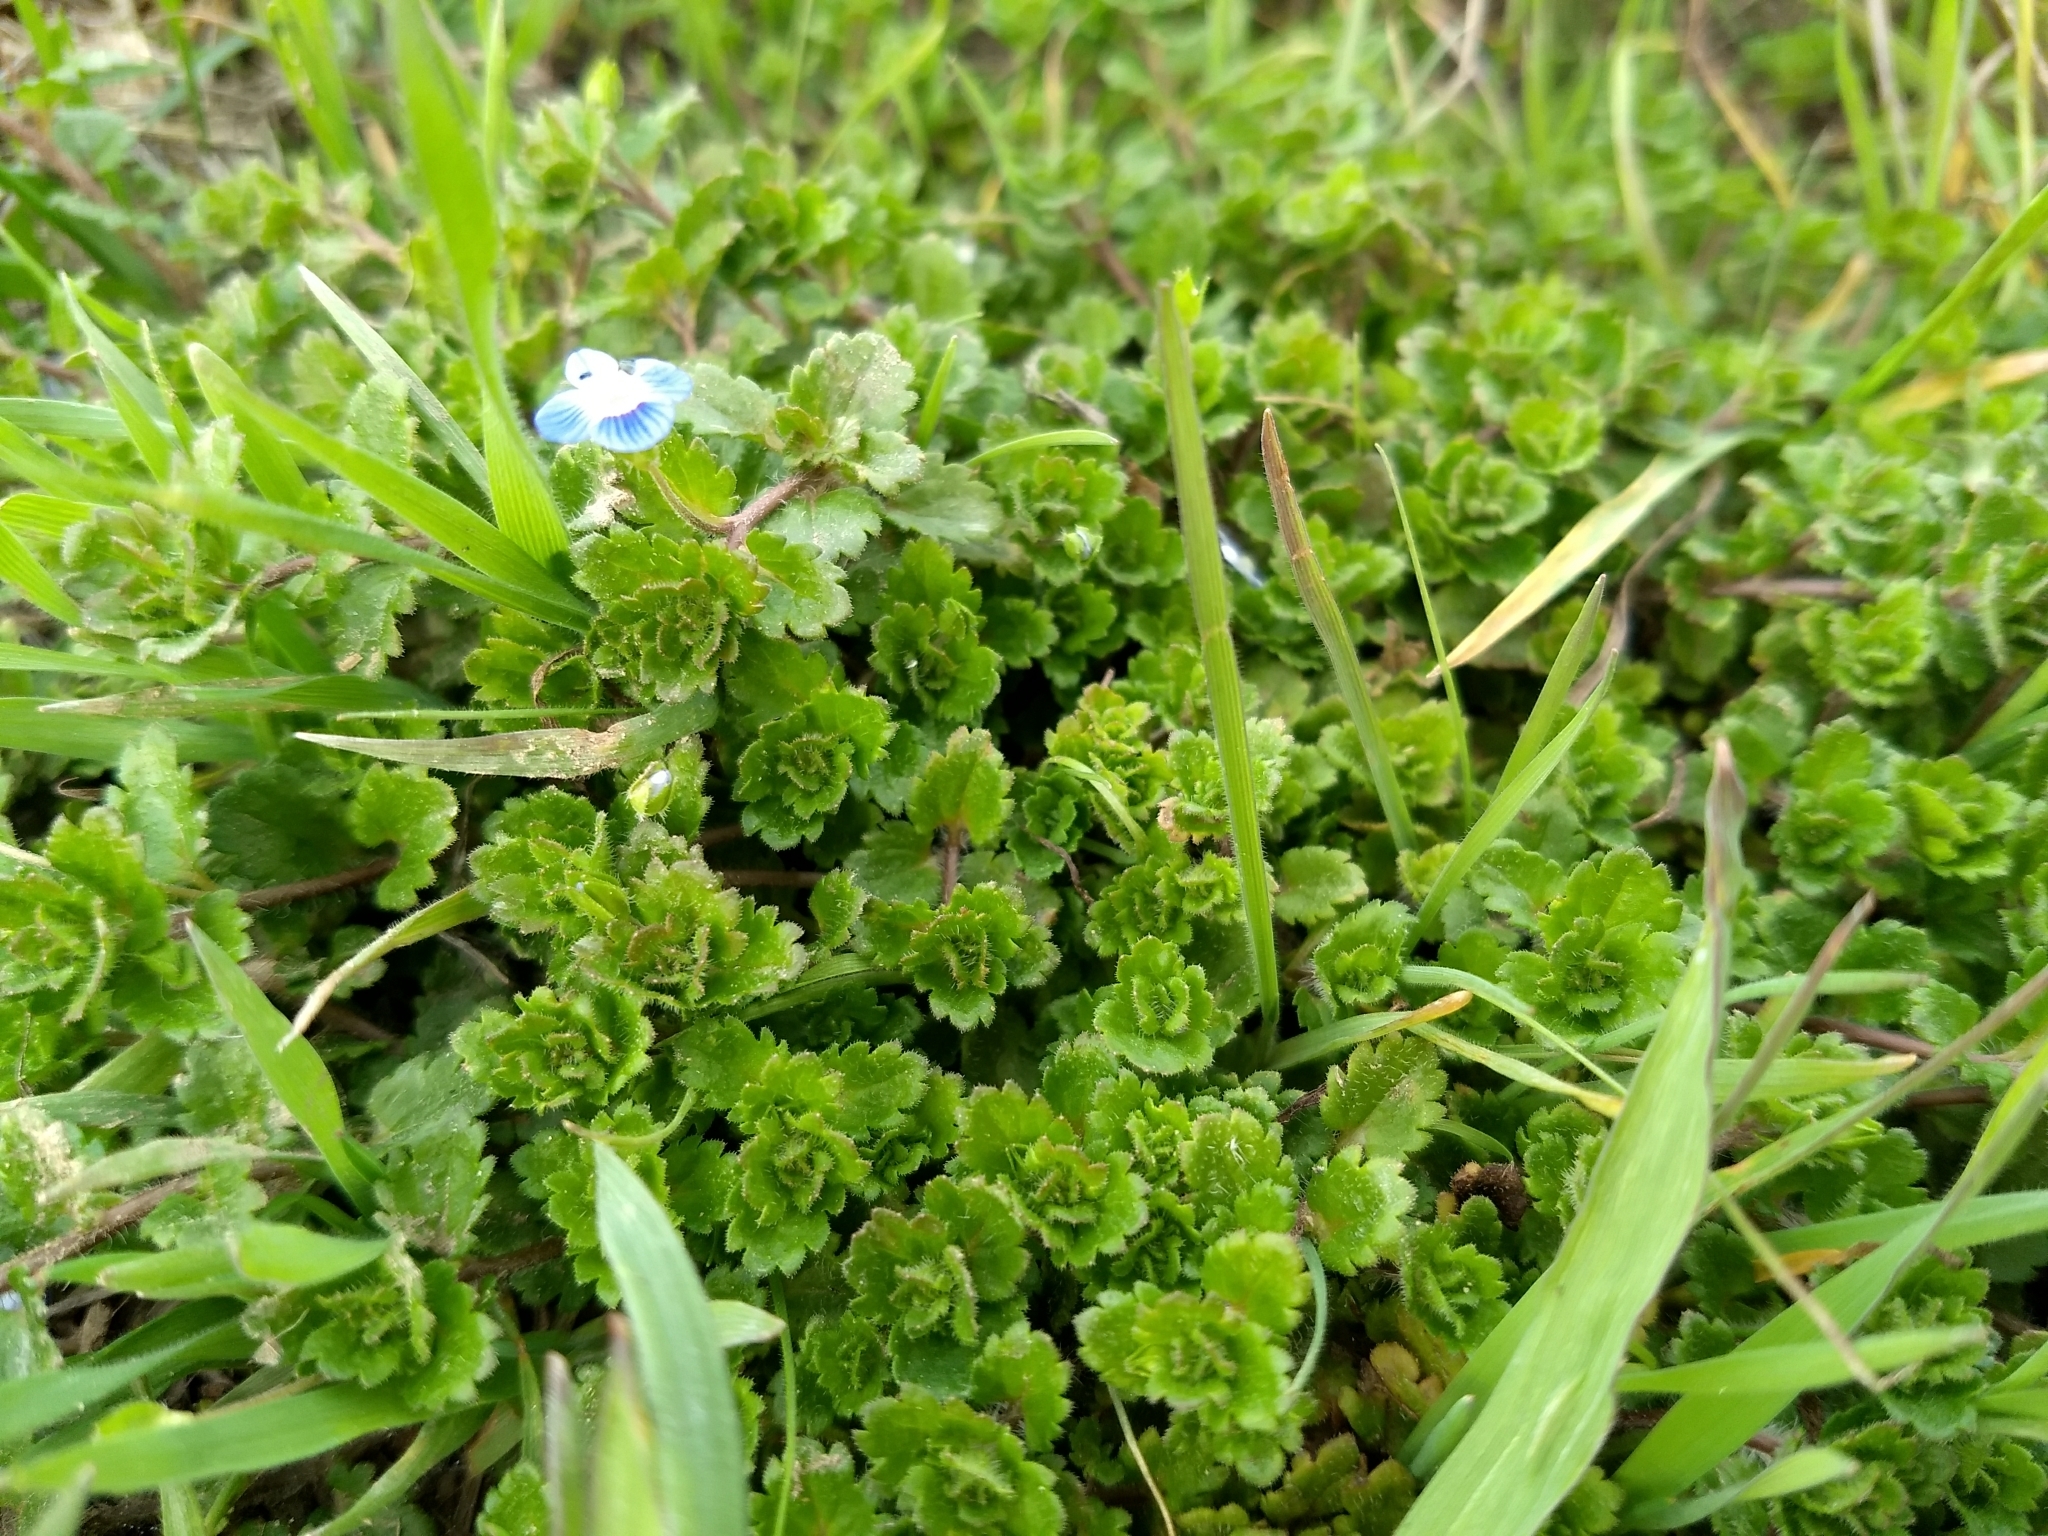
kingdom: Plantae
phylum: Tracheophyta
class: Magnoliopsida
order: Lamiales
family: Plantaginaceae
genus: Veronica
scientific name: Veronica persica
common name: Common field-speedwell
